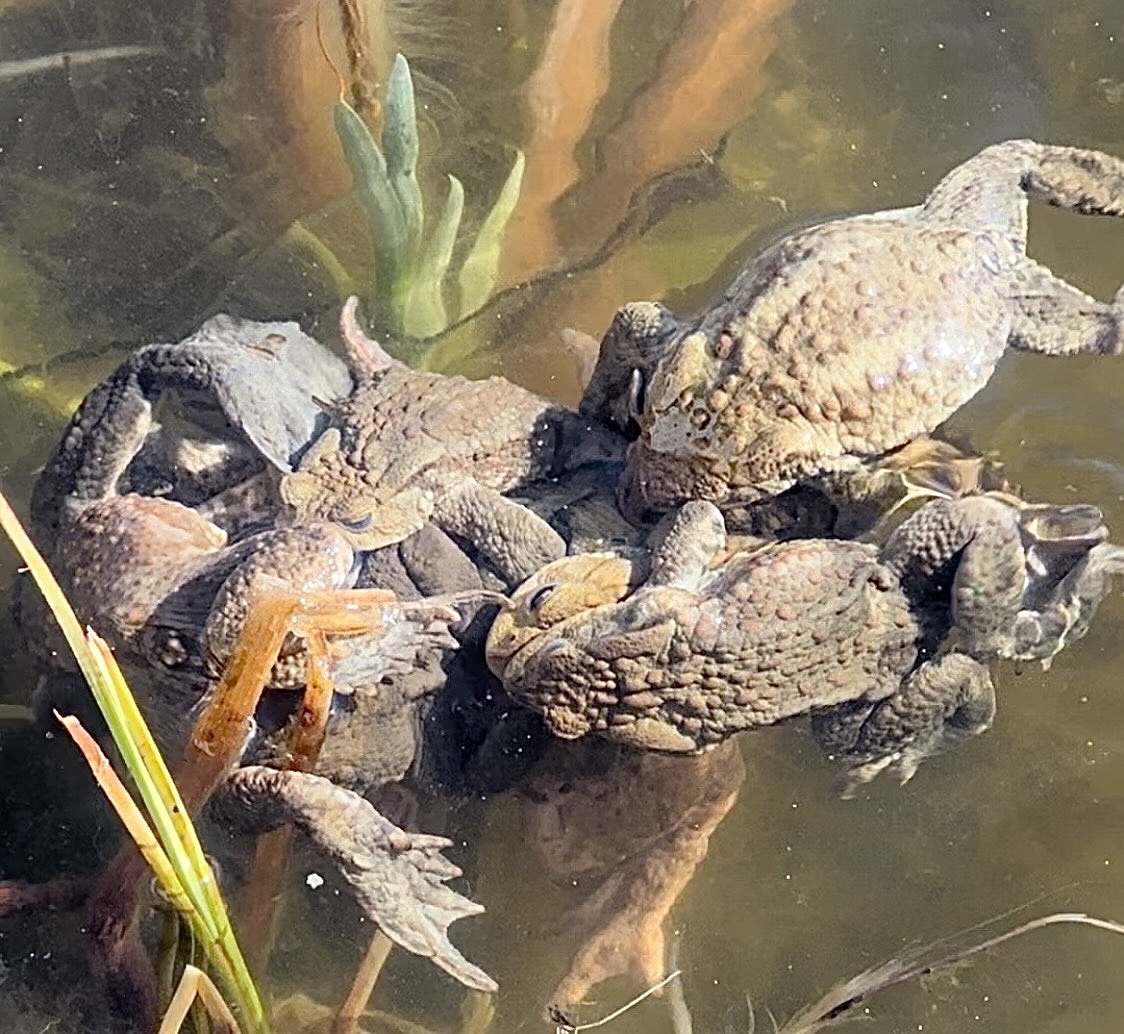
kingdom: Animalia
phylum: Chordata
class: Amphibia
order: Anura
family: Bufonidae
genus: Bufo
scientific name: Bufo bufo
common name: Common toad
